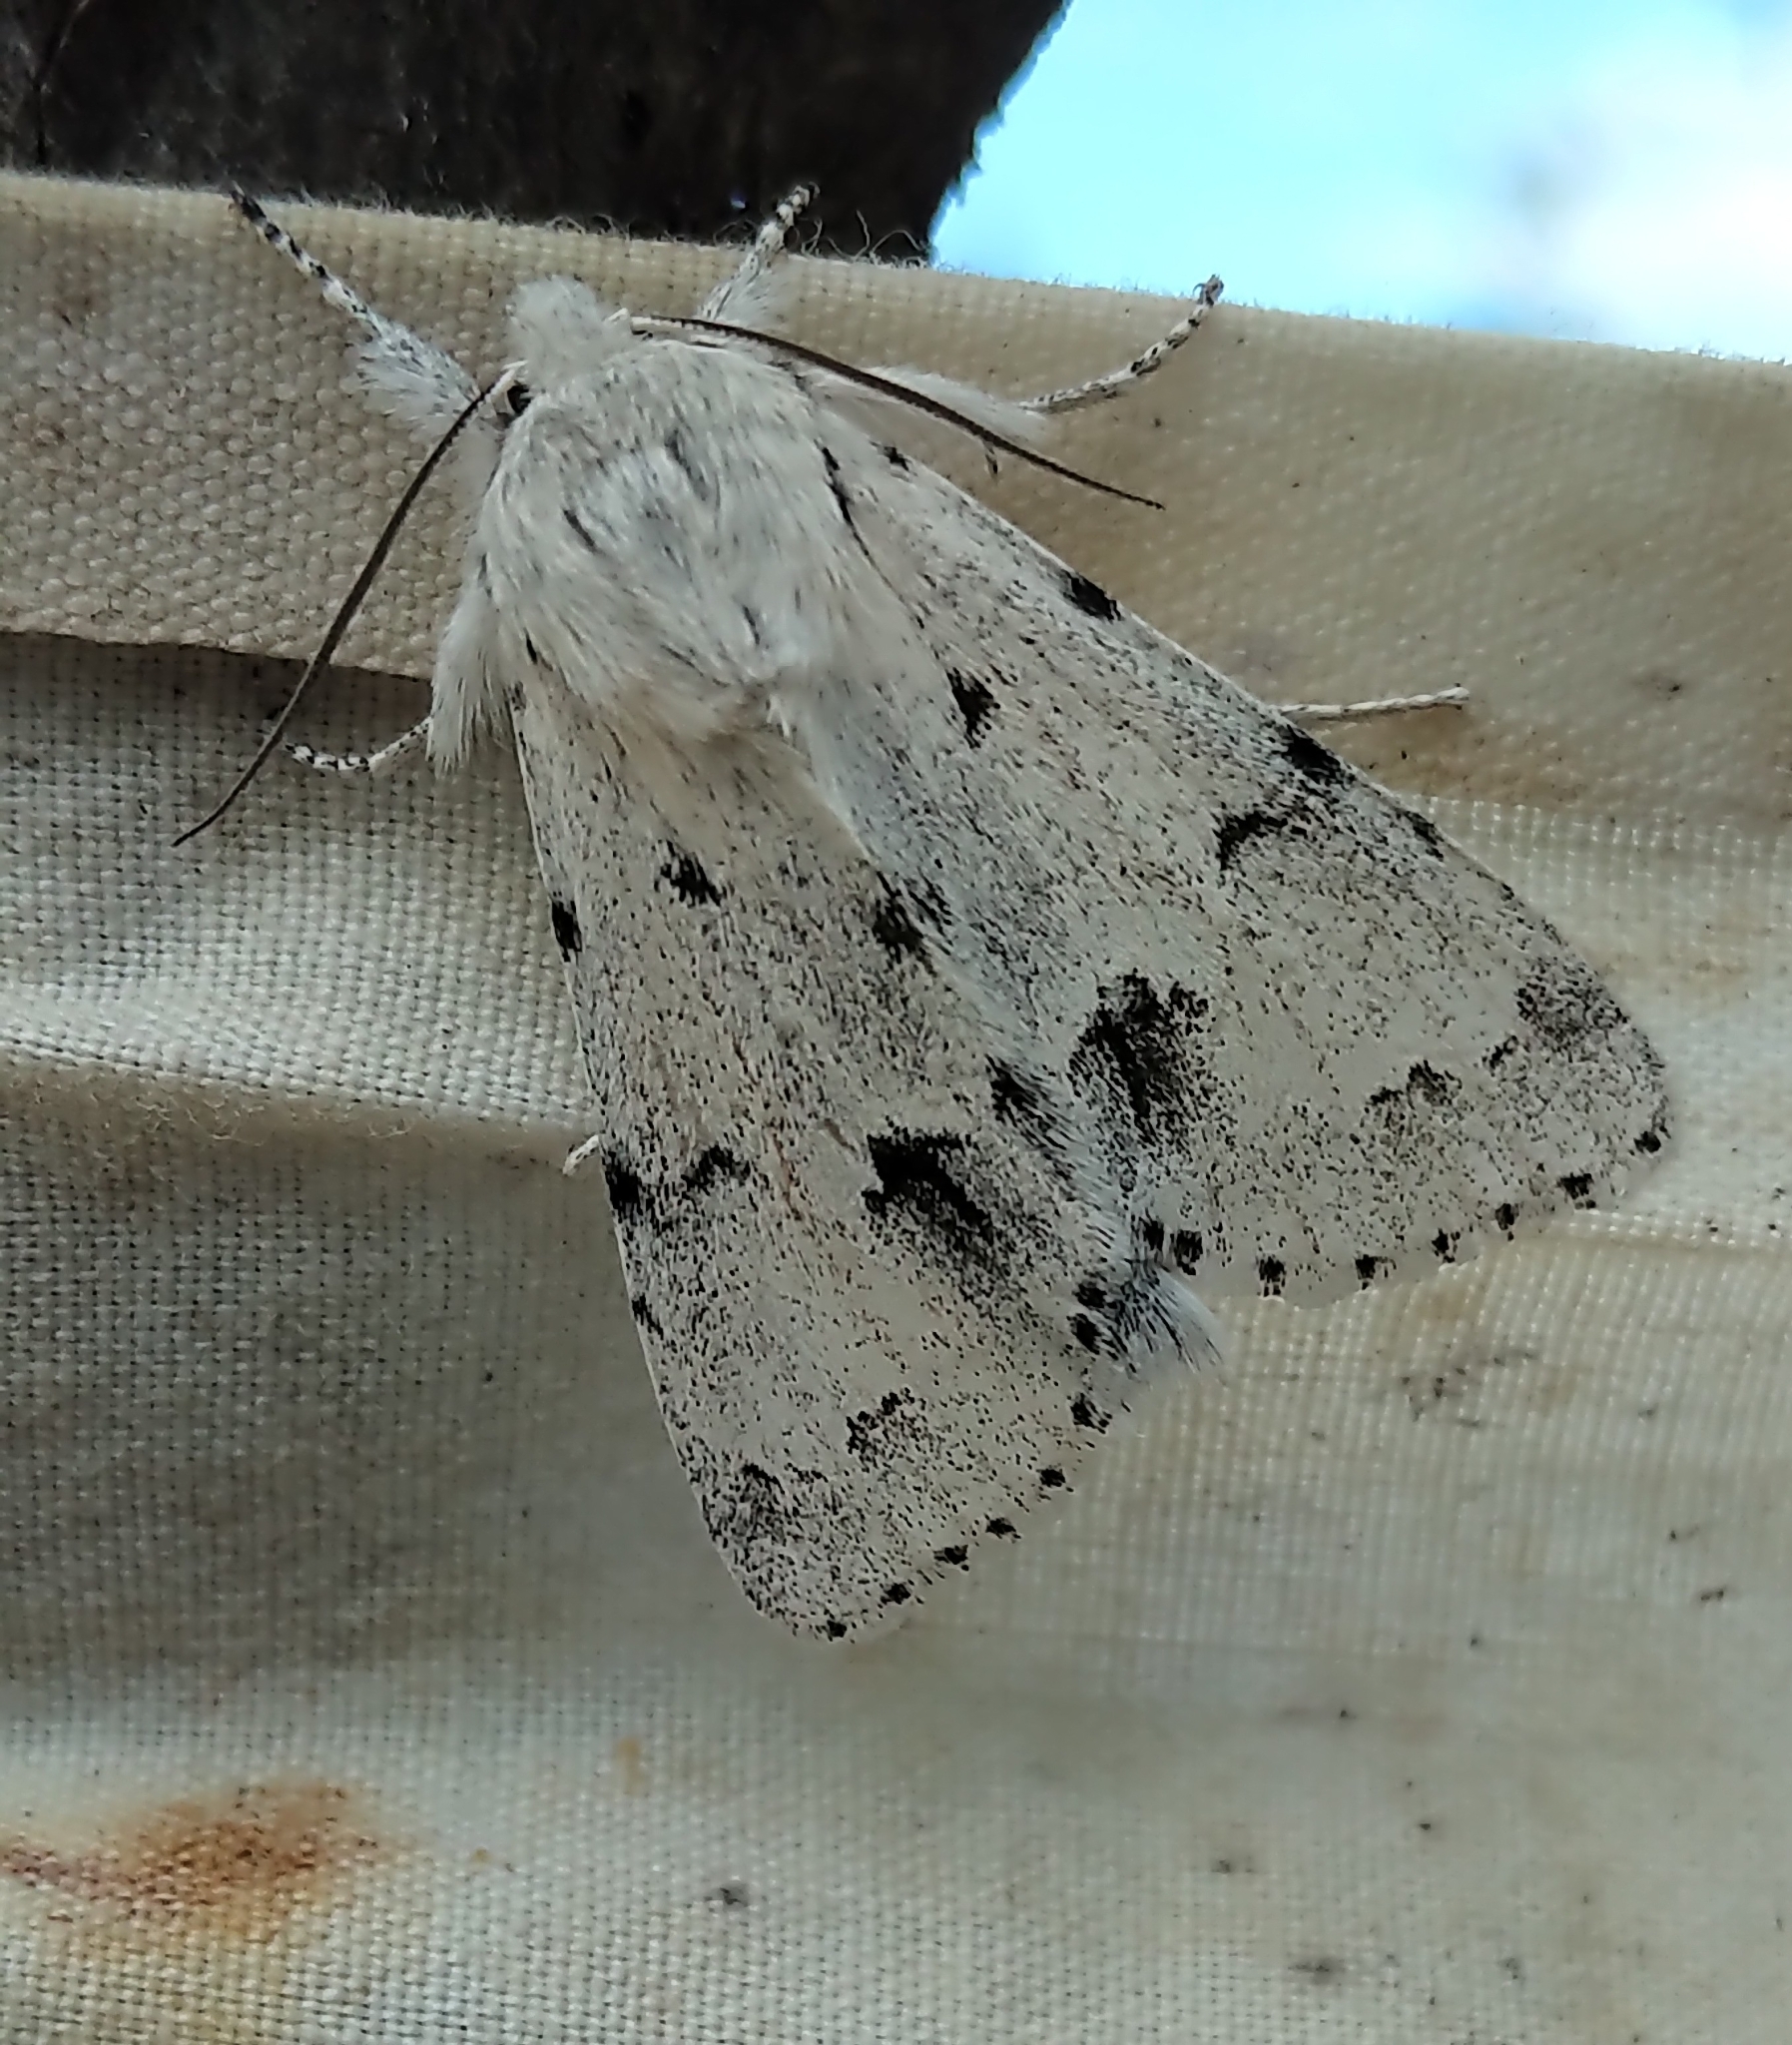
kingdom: Animalia
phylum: Arthropoda
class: Insecta
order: Lepidoptera
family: Noctuidae
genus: Acronicta
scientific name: Acronicta lepusculina
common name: Cottonwood dagger
